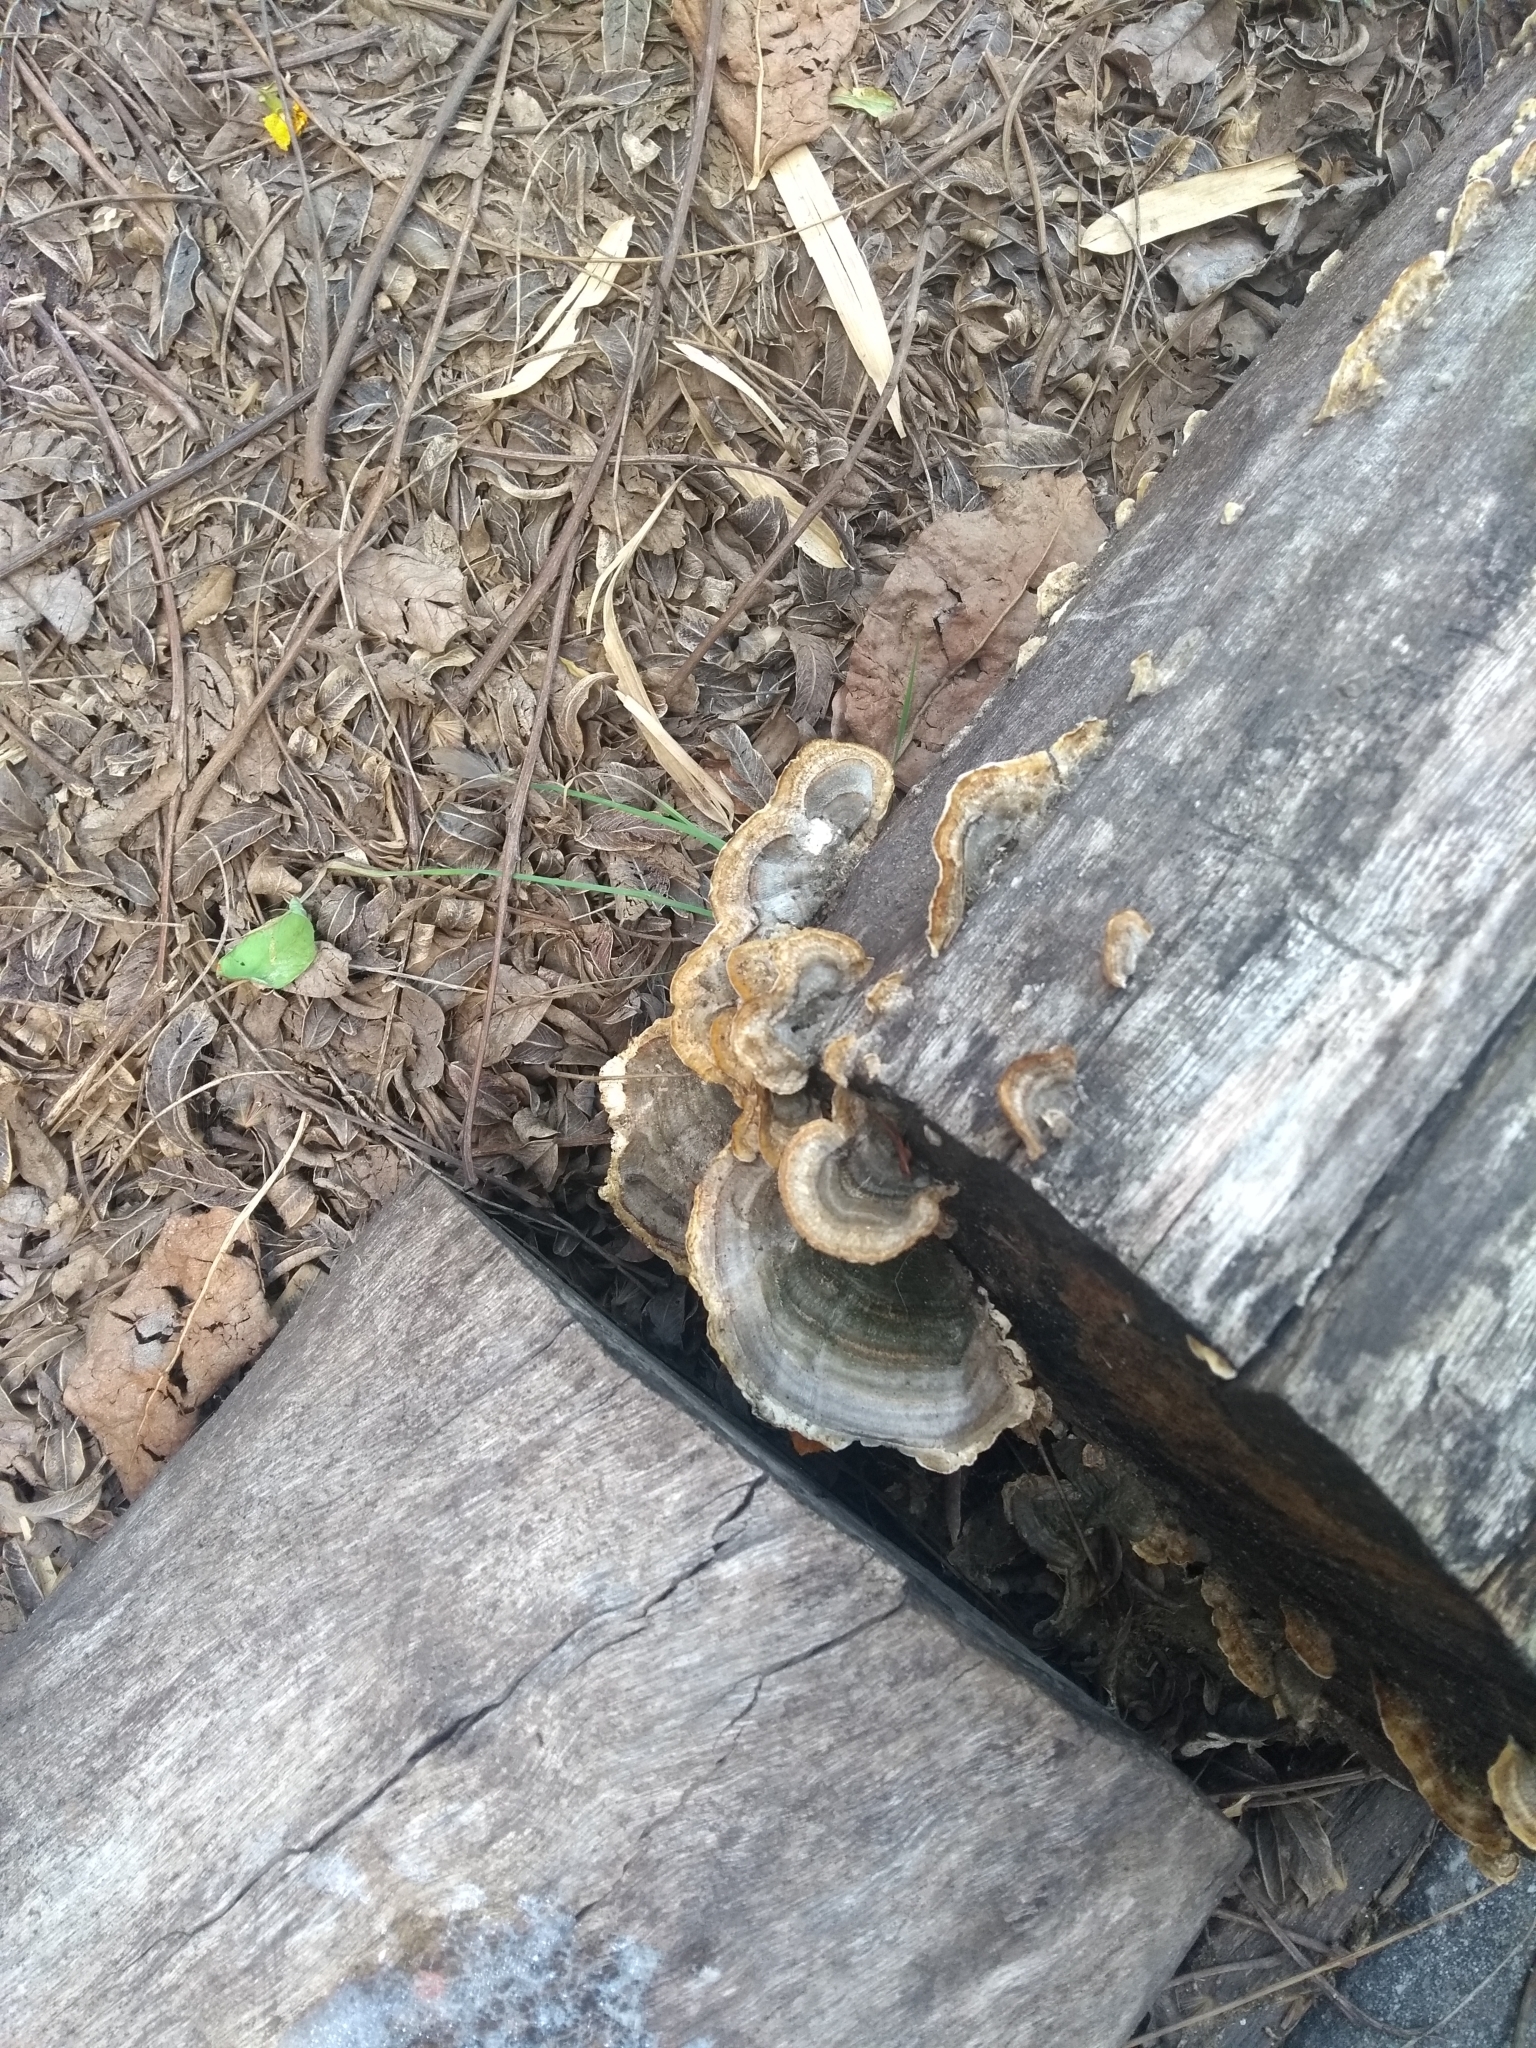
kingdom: Fungi
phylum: Basidiomycota
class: Agaricomycetes
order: Polyporales
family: Polyporaceae
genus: Trametes
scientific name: Trametes versicolor
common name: Turkeytail
